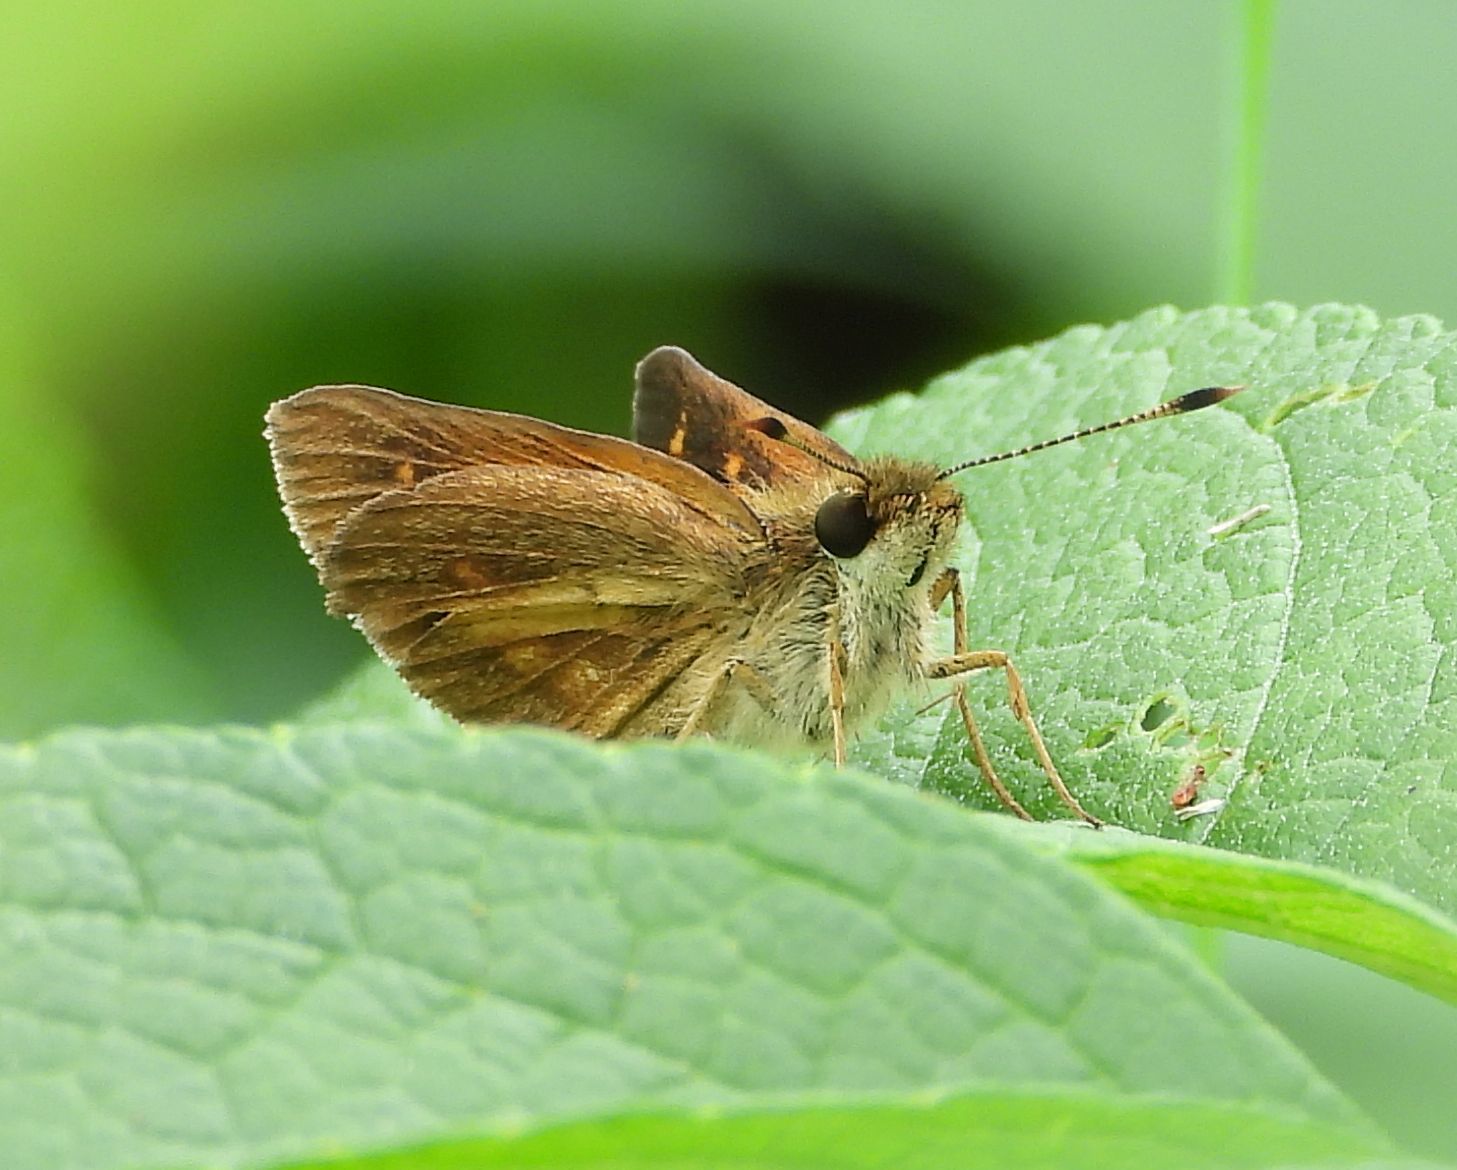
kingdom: Animalia
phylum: Arthropoda
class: Insecta
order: Lepidoptera
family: Hesperiidae
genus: Poanes
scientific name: Poanes viator
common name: Broad-winged skipper
